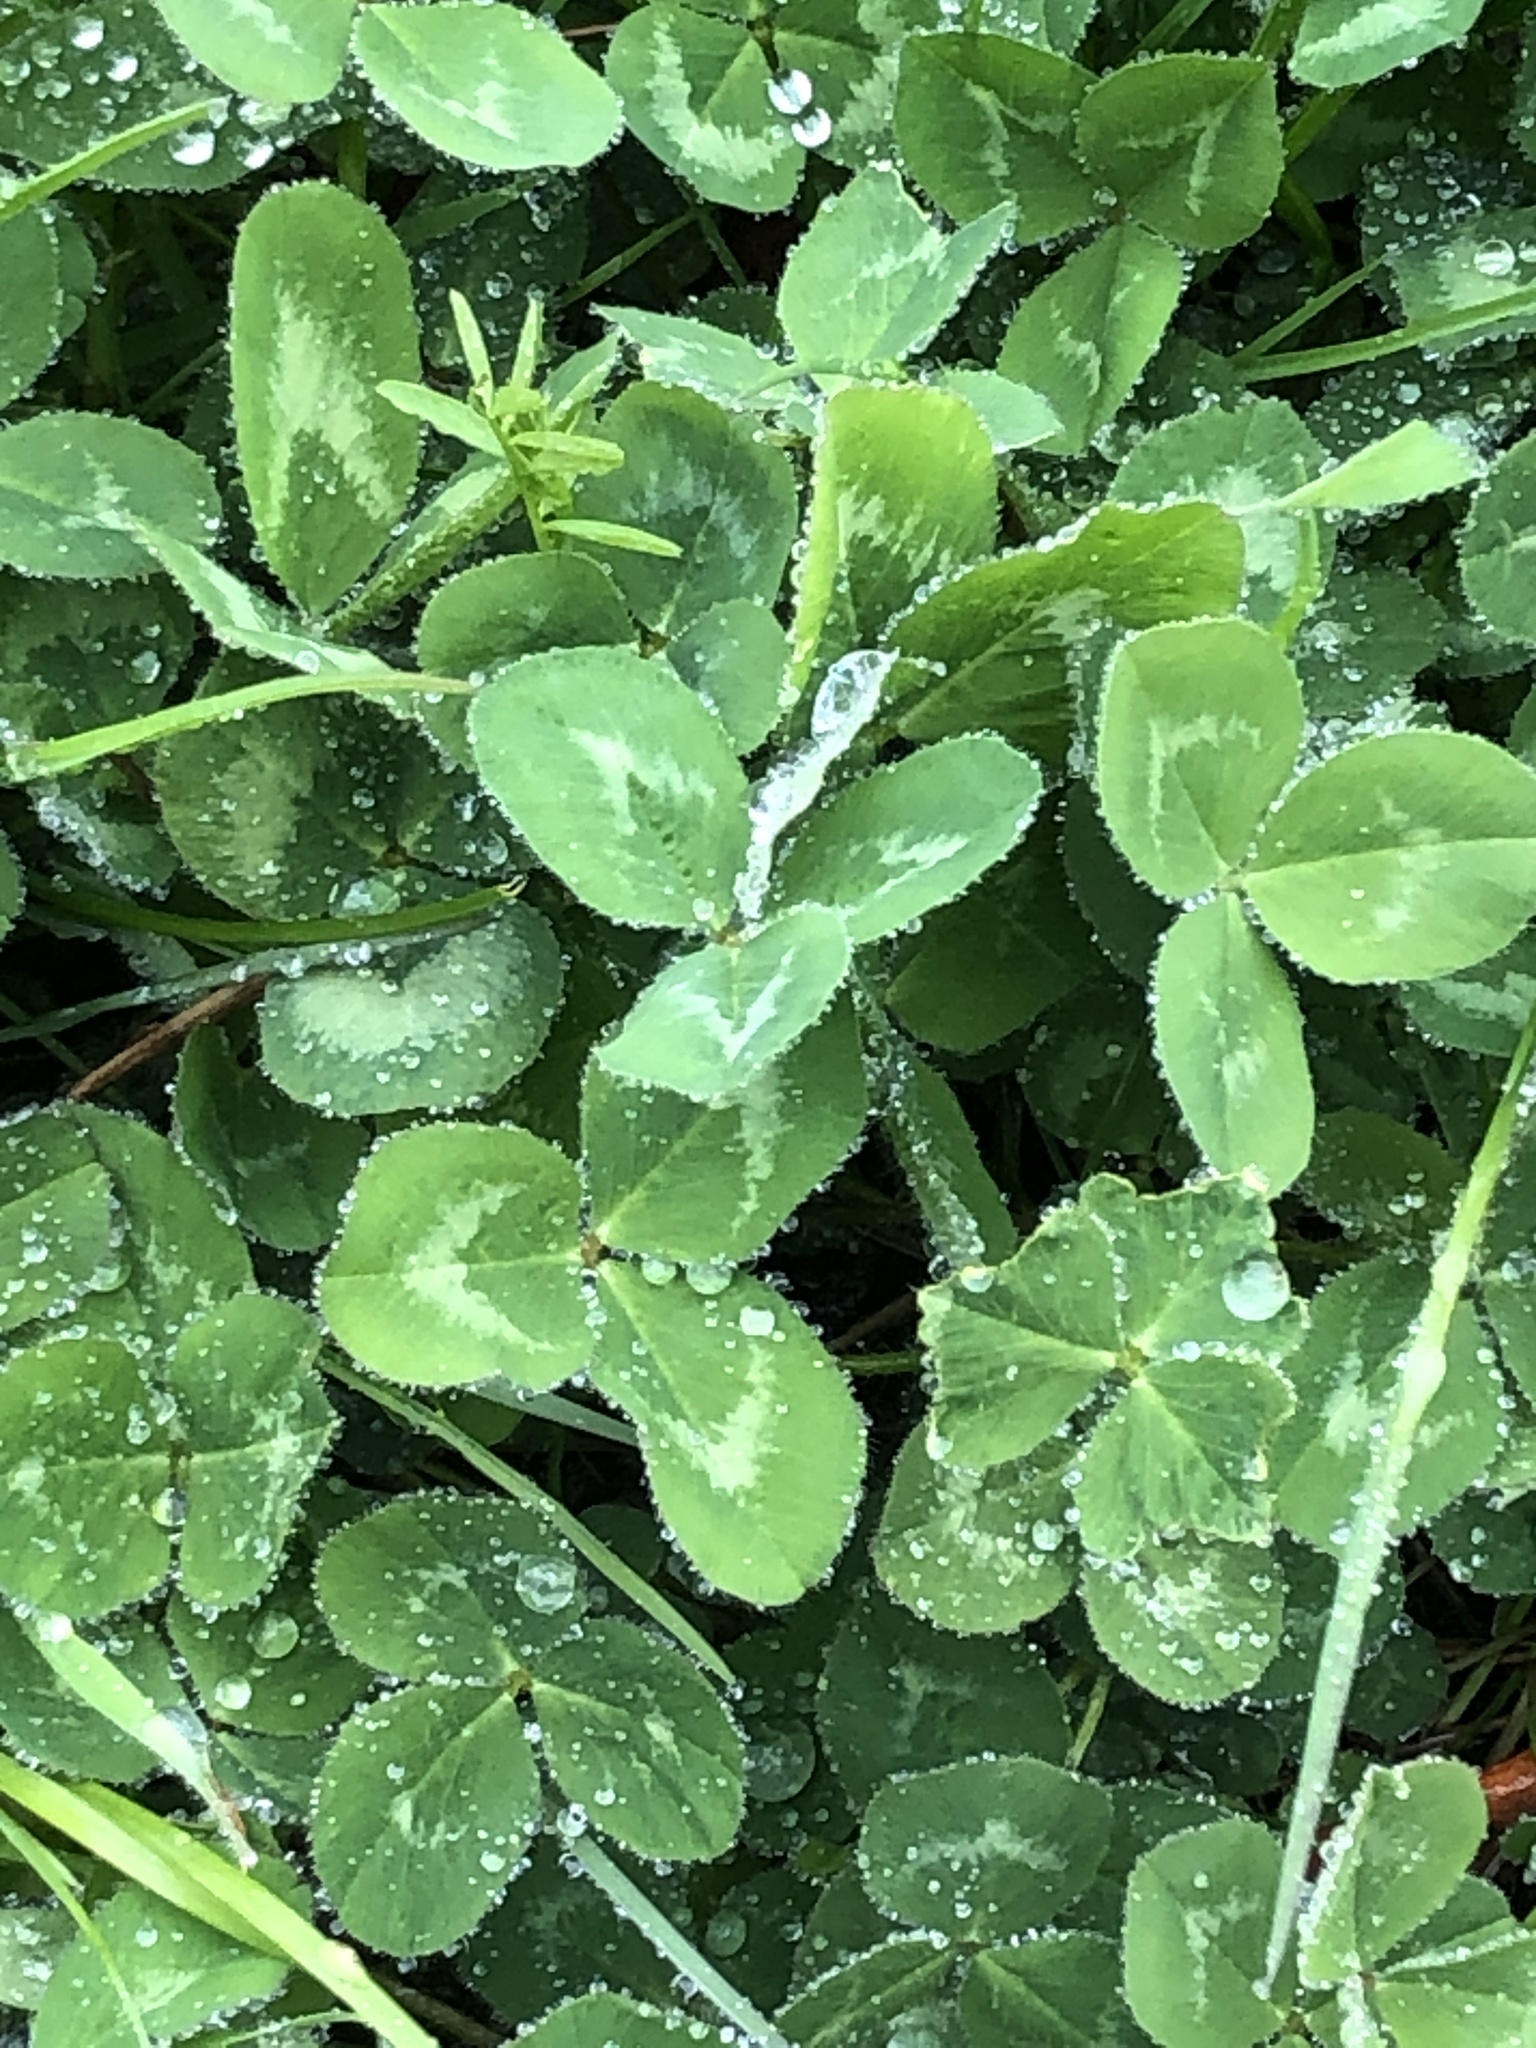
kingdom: Plantae
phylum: Tracheophyta
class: Magnoliopsida
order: Fabales
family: Fabaceae
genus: Trifolium
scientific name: Trifolium pratense
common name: Red clover
